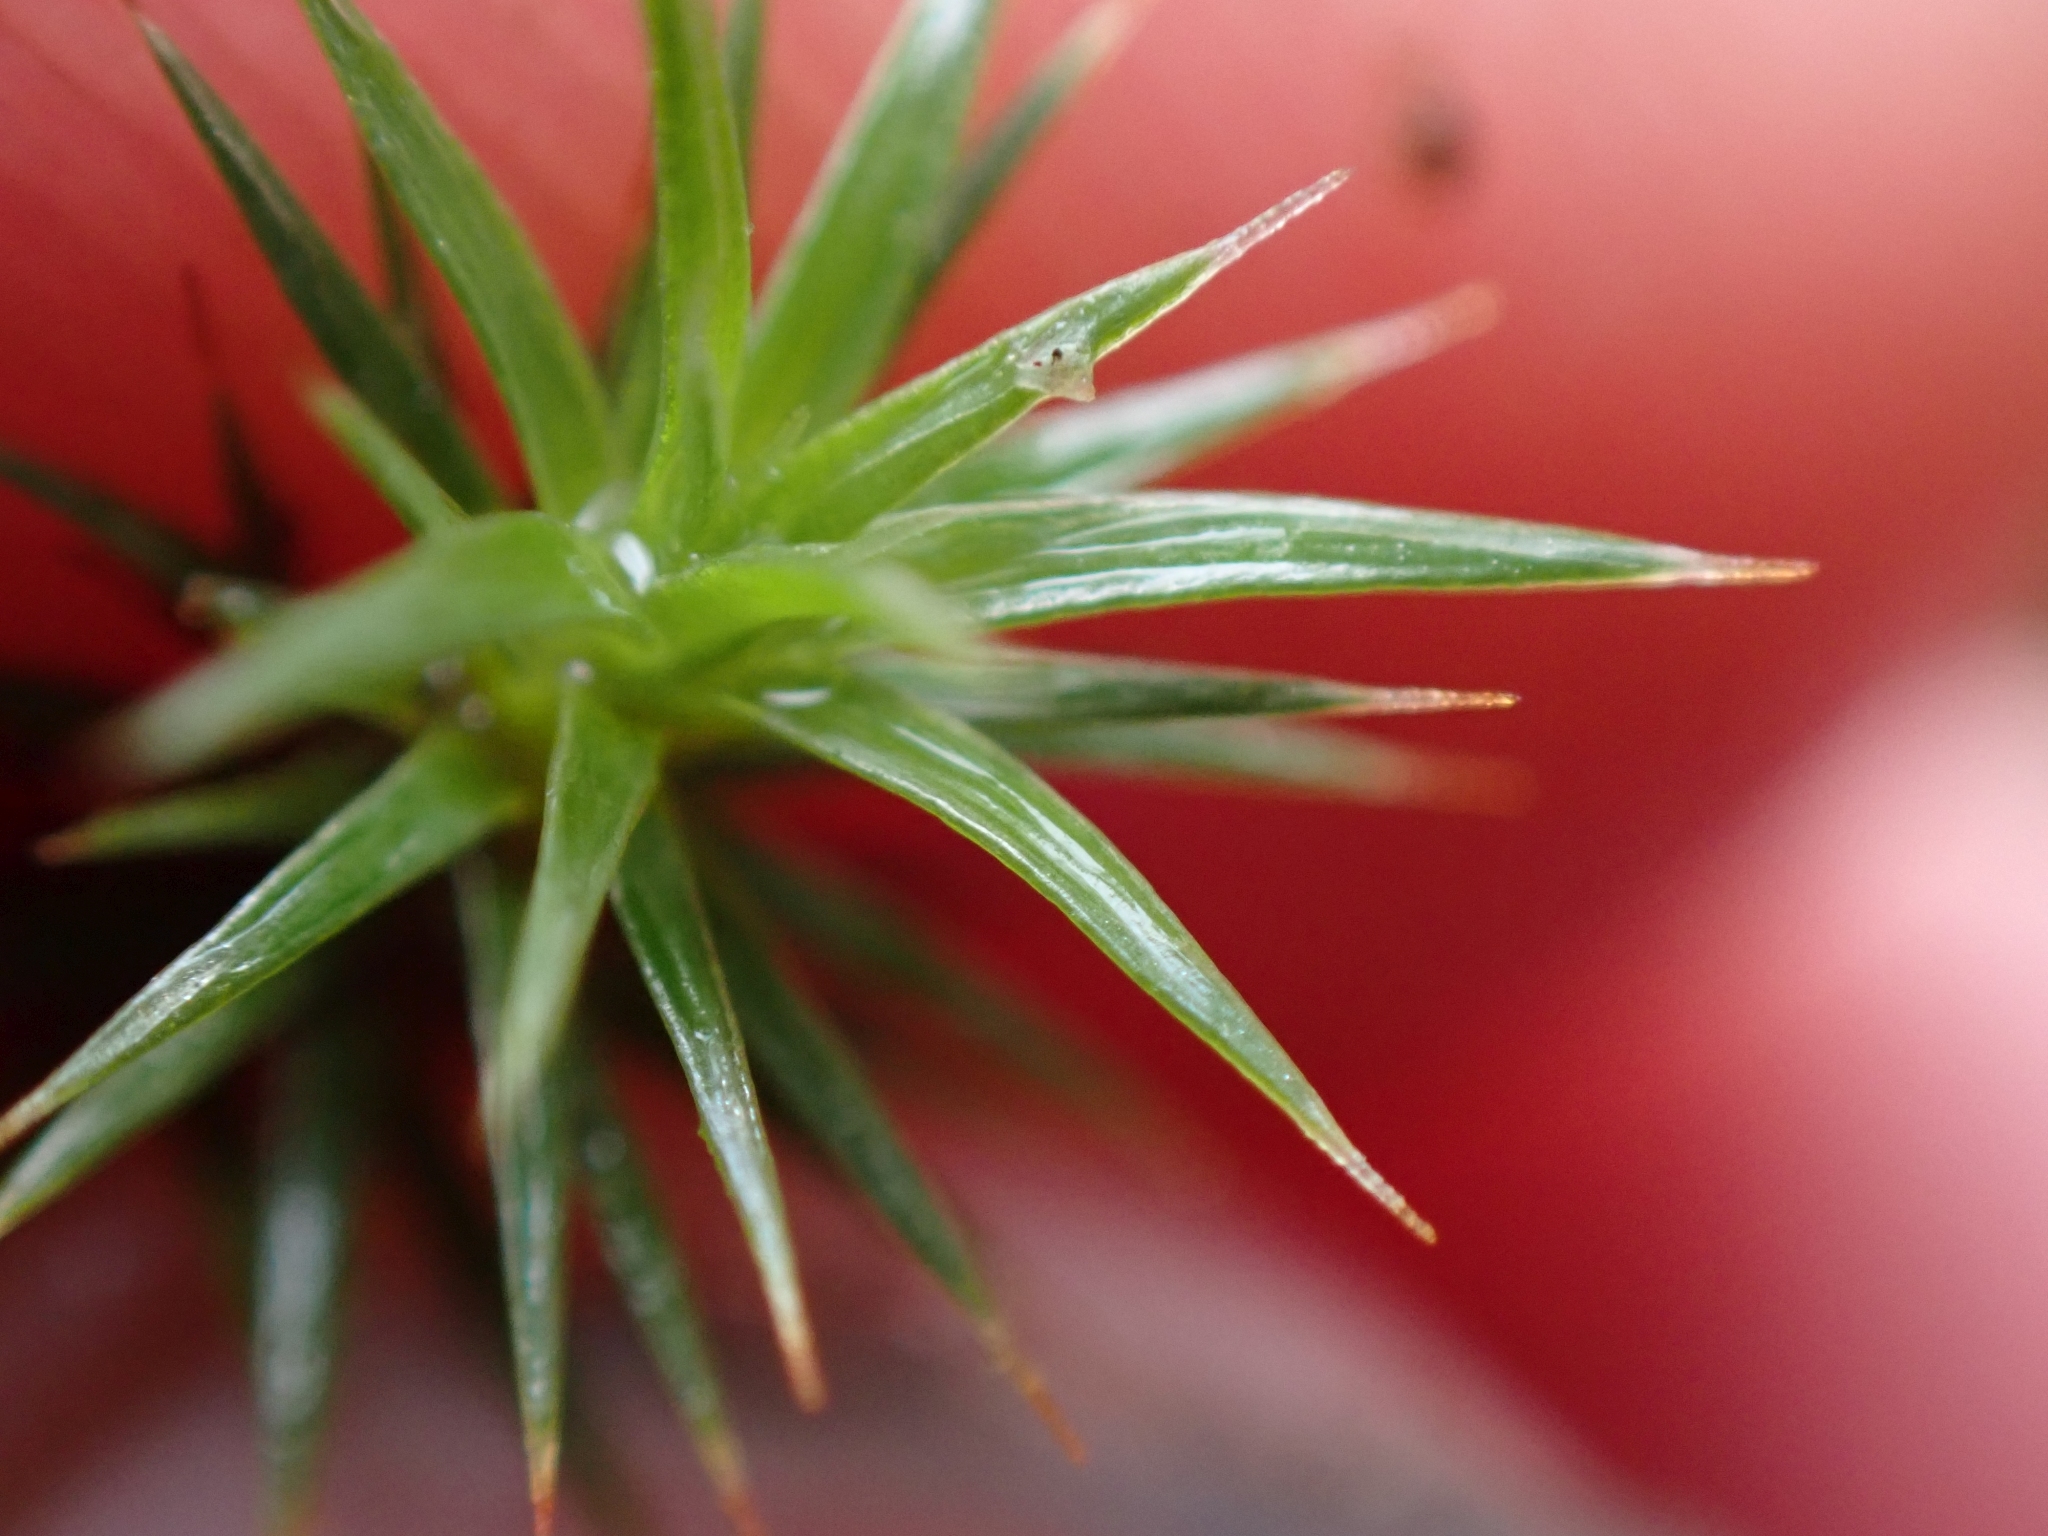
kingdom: Plantae
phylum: Bryophyta
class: Polytrichopsida
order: Polytrichales
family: Polytrichaceae
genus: Polytrichum
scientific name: Polytrichum juniperinum
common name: Juniper haircap moss
